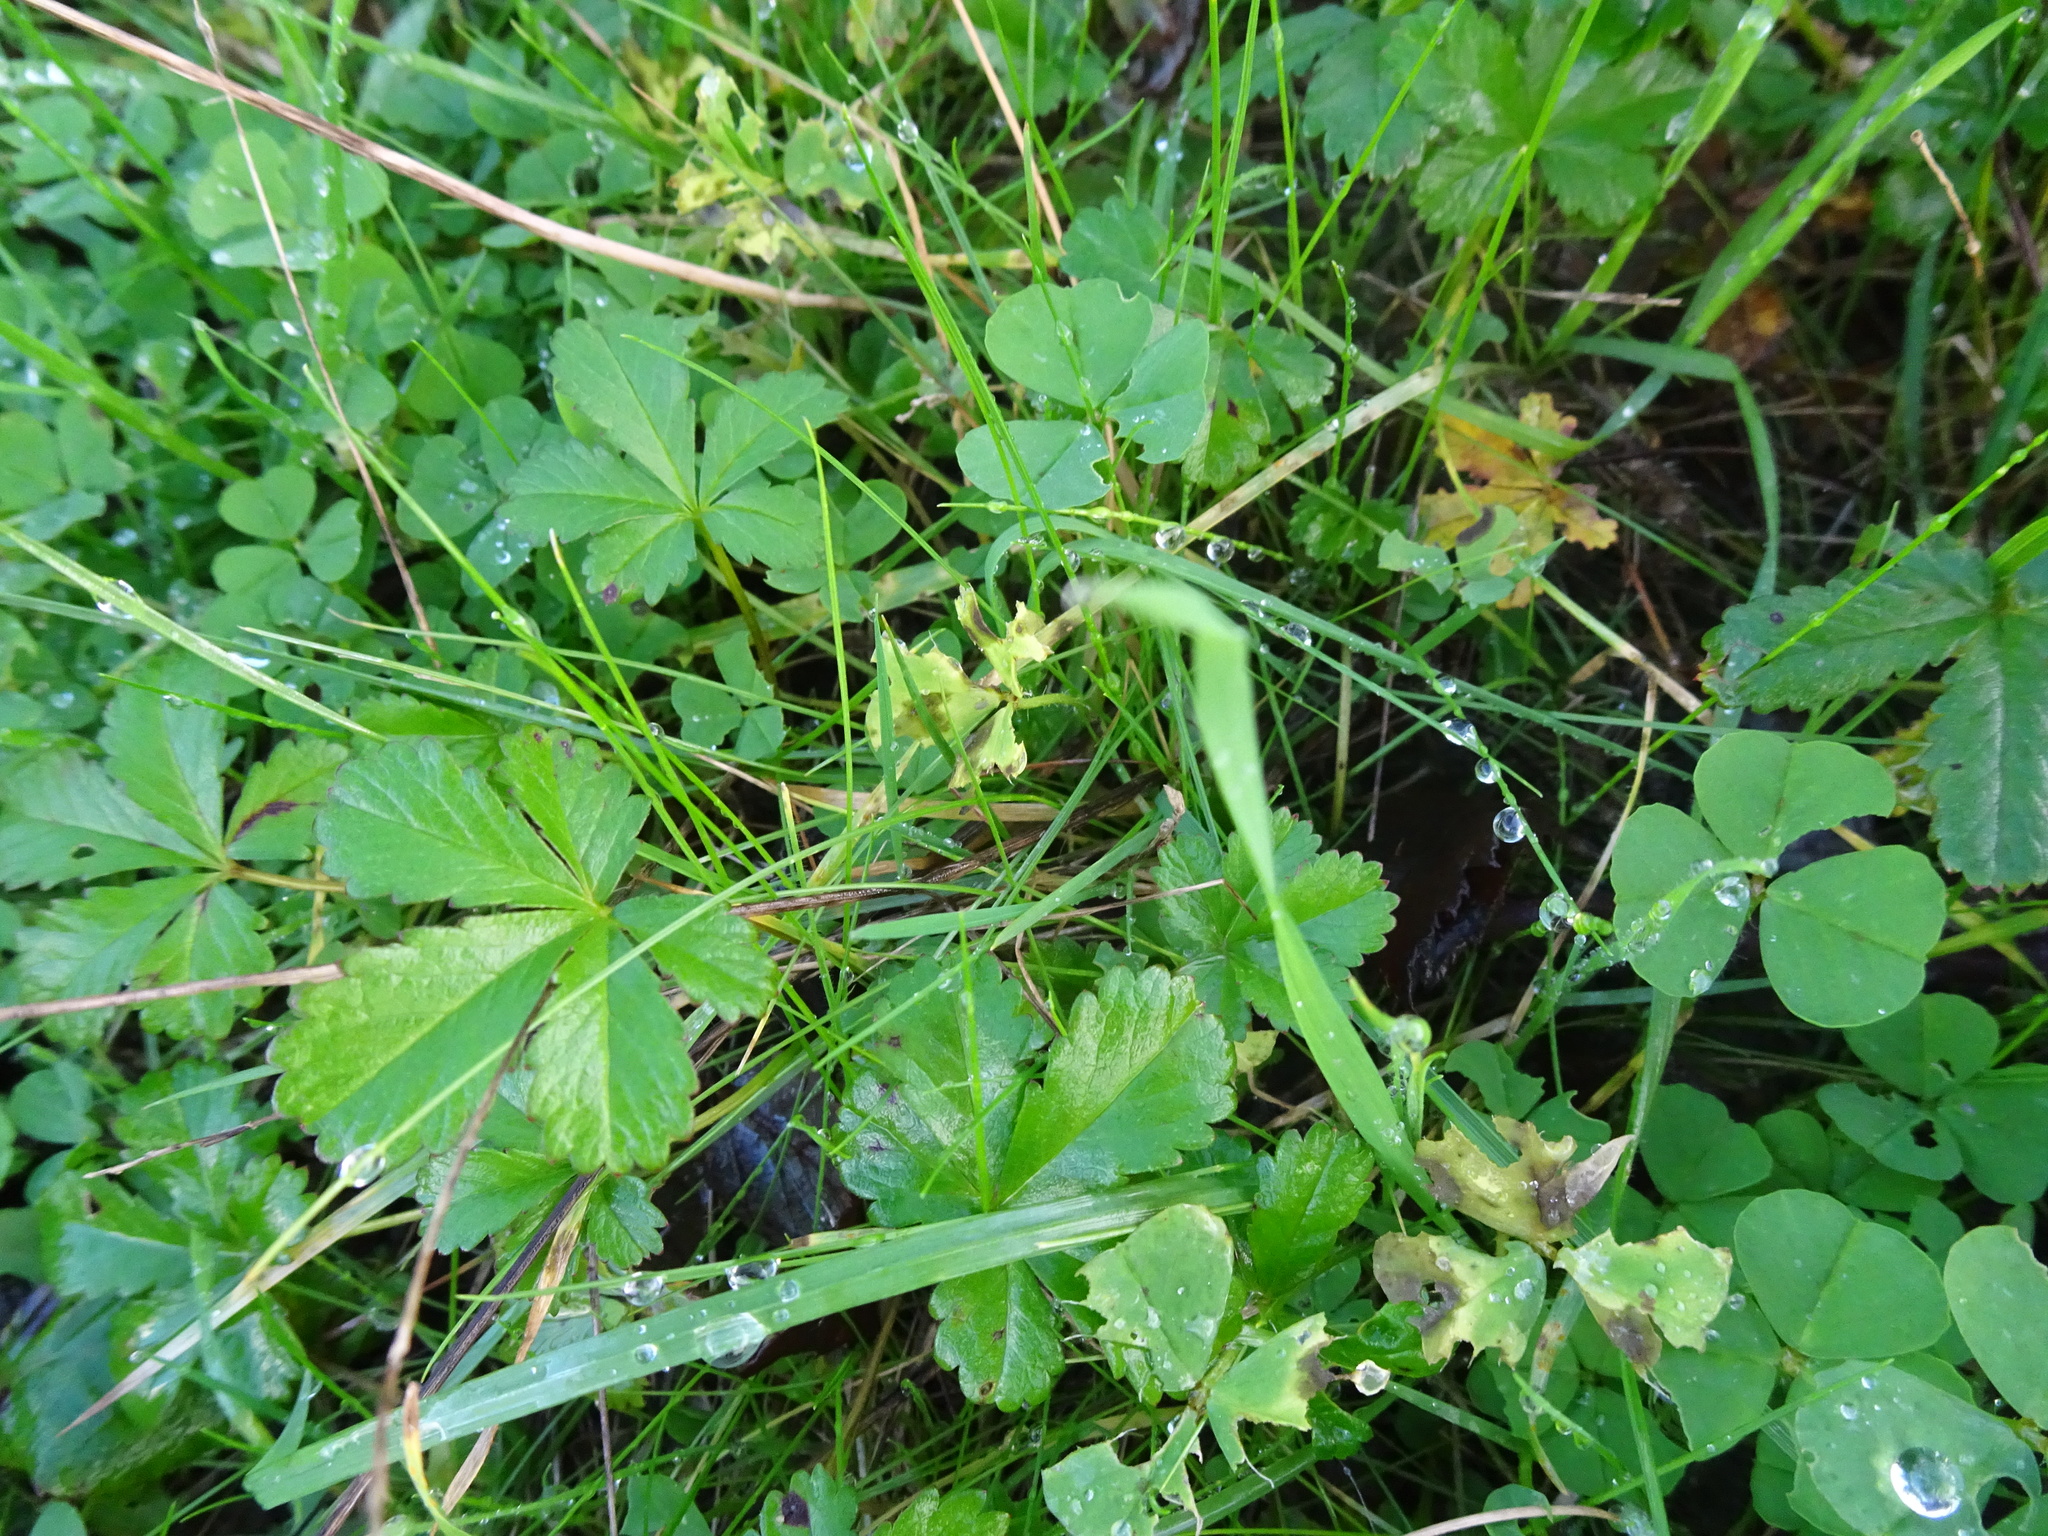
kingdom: Plantae
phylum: Tracheophyta
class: Magnoliopsida
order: Rosales
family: Rosaceae
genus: Potentilla
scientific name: Potentilla reptans
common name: Creeping cinquefoil
